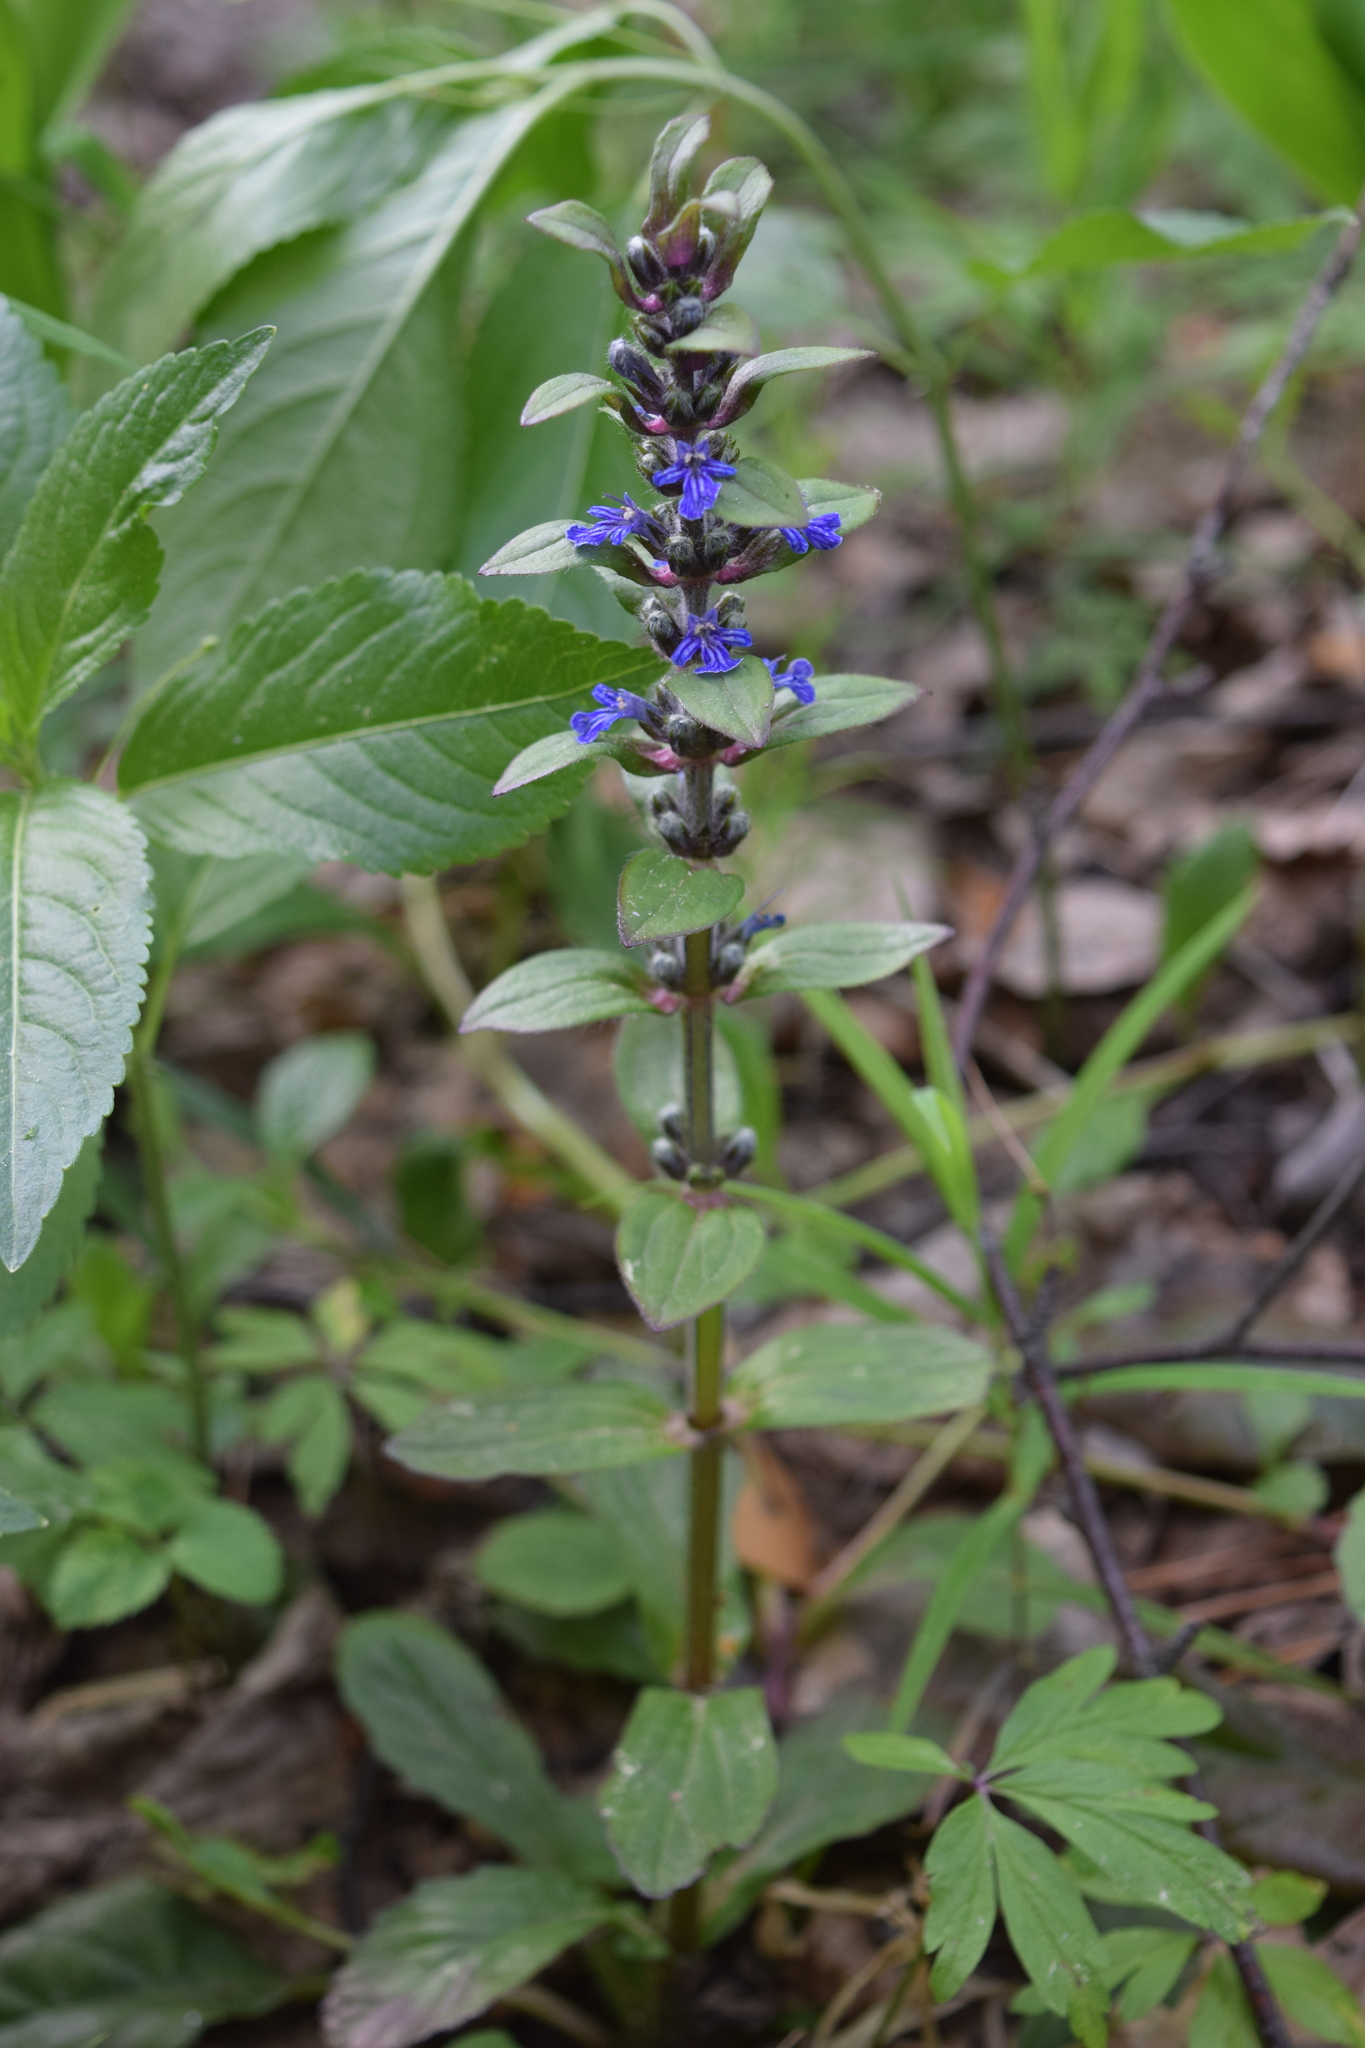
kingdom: Plantae
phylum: Tracheophyta
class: Magnoliopsida
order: Lamiales
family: Lamiaceae
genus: Ajuga
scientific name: Ajuga reptans
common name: Bugle
